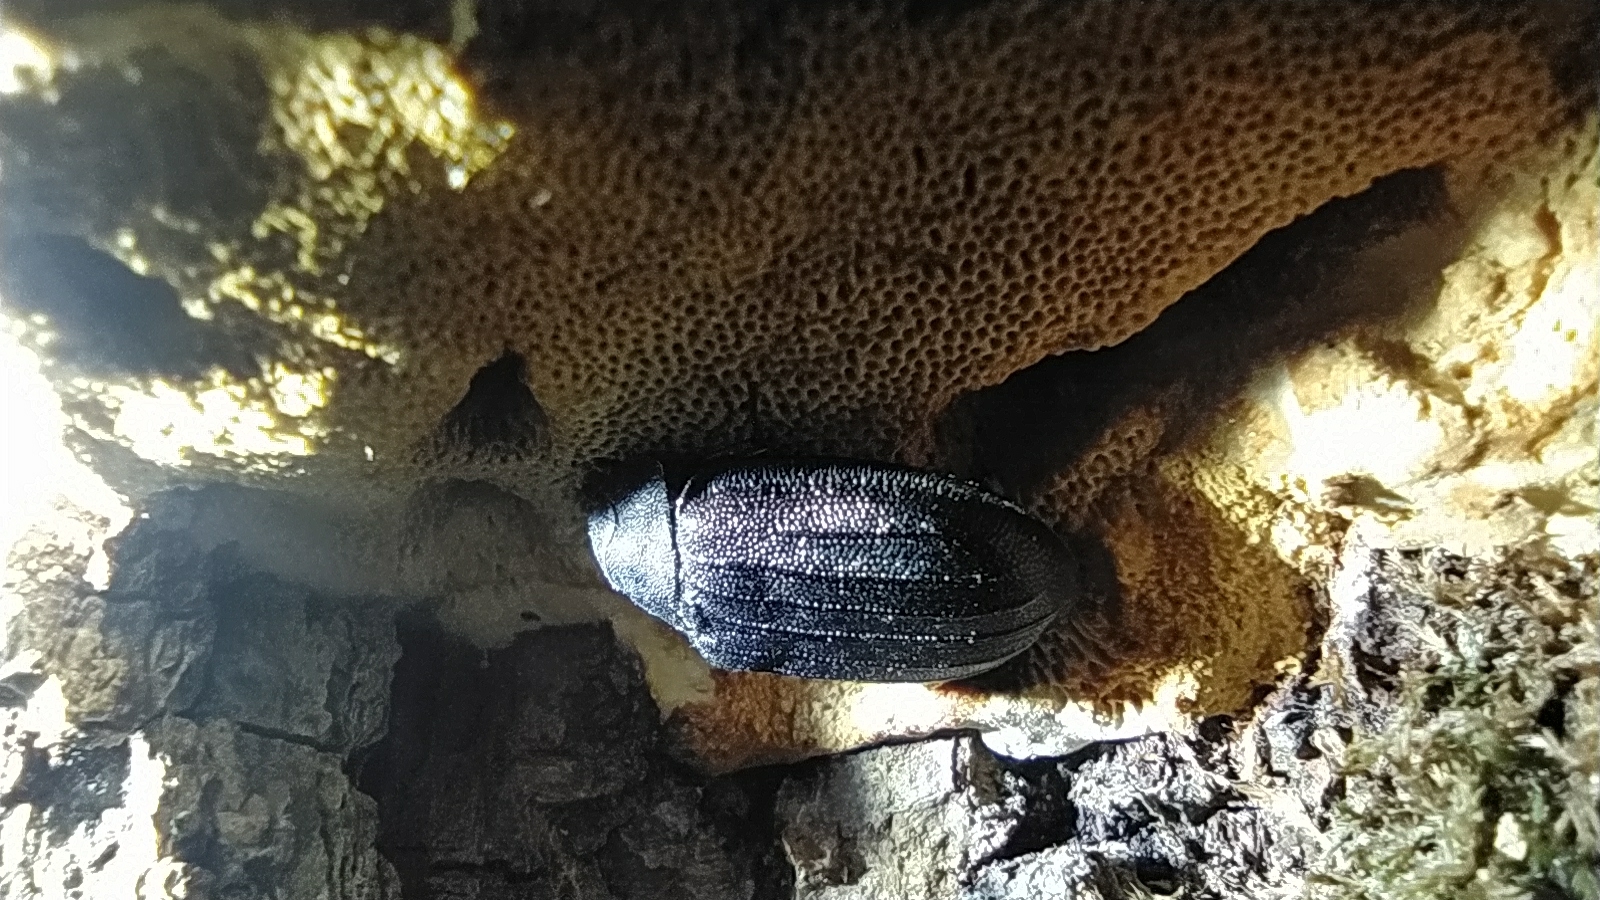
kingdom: Animalia
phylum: Arthropoda
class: Insecta
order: Coleoptera
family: Trogossitidae
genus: Peltis
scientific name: Peltis grossa
